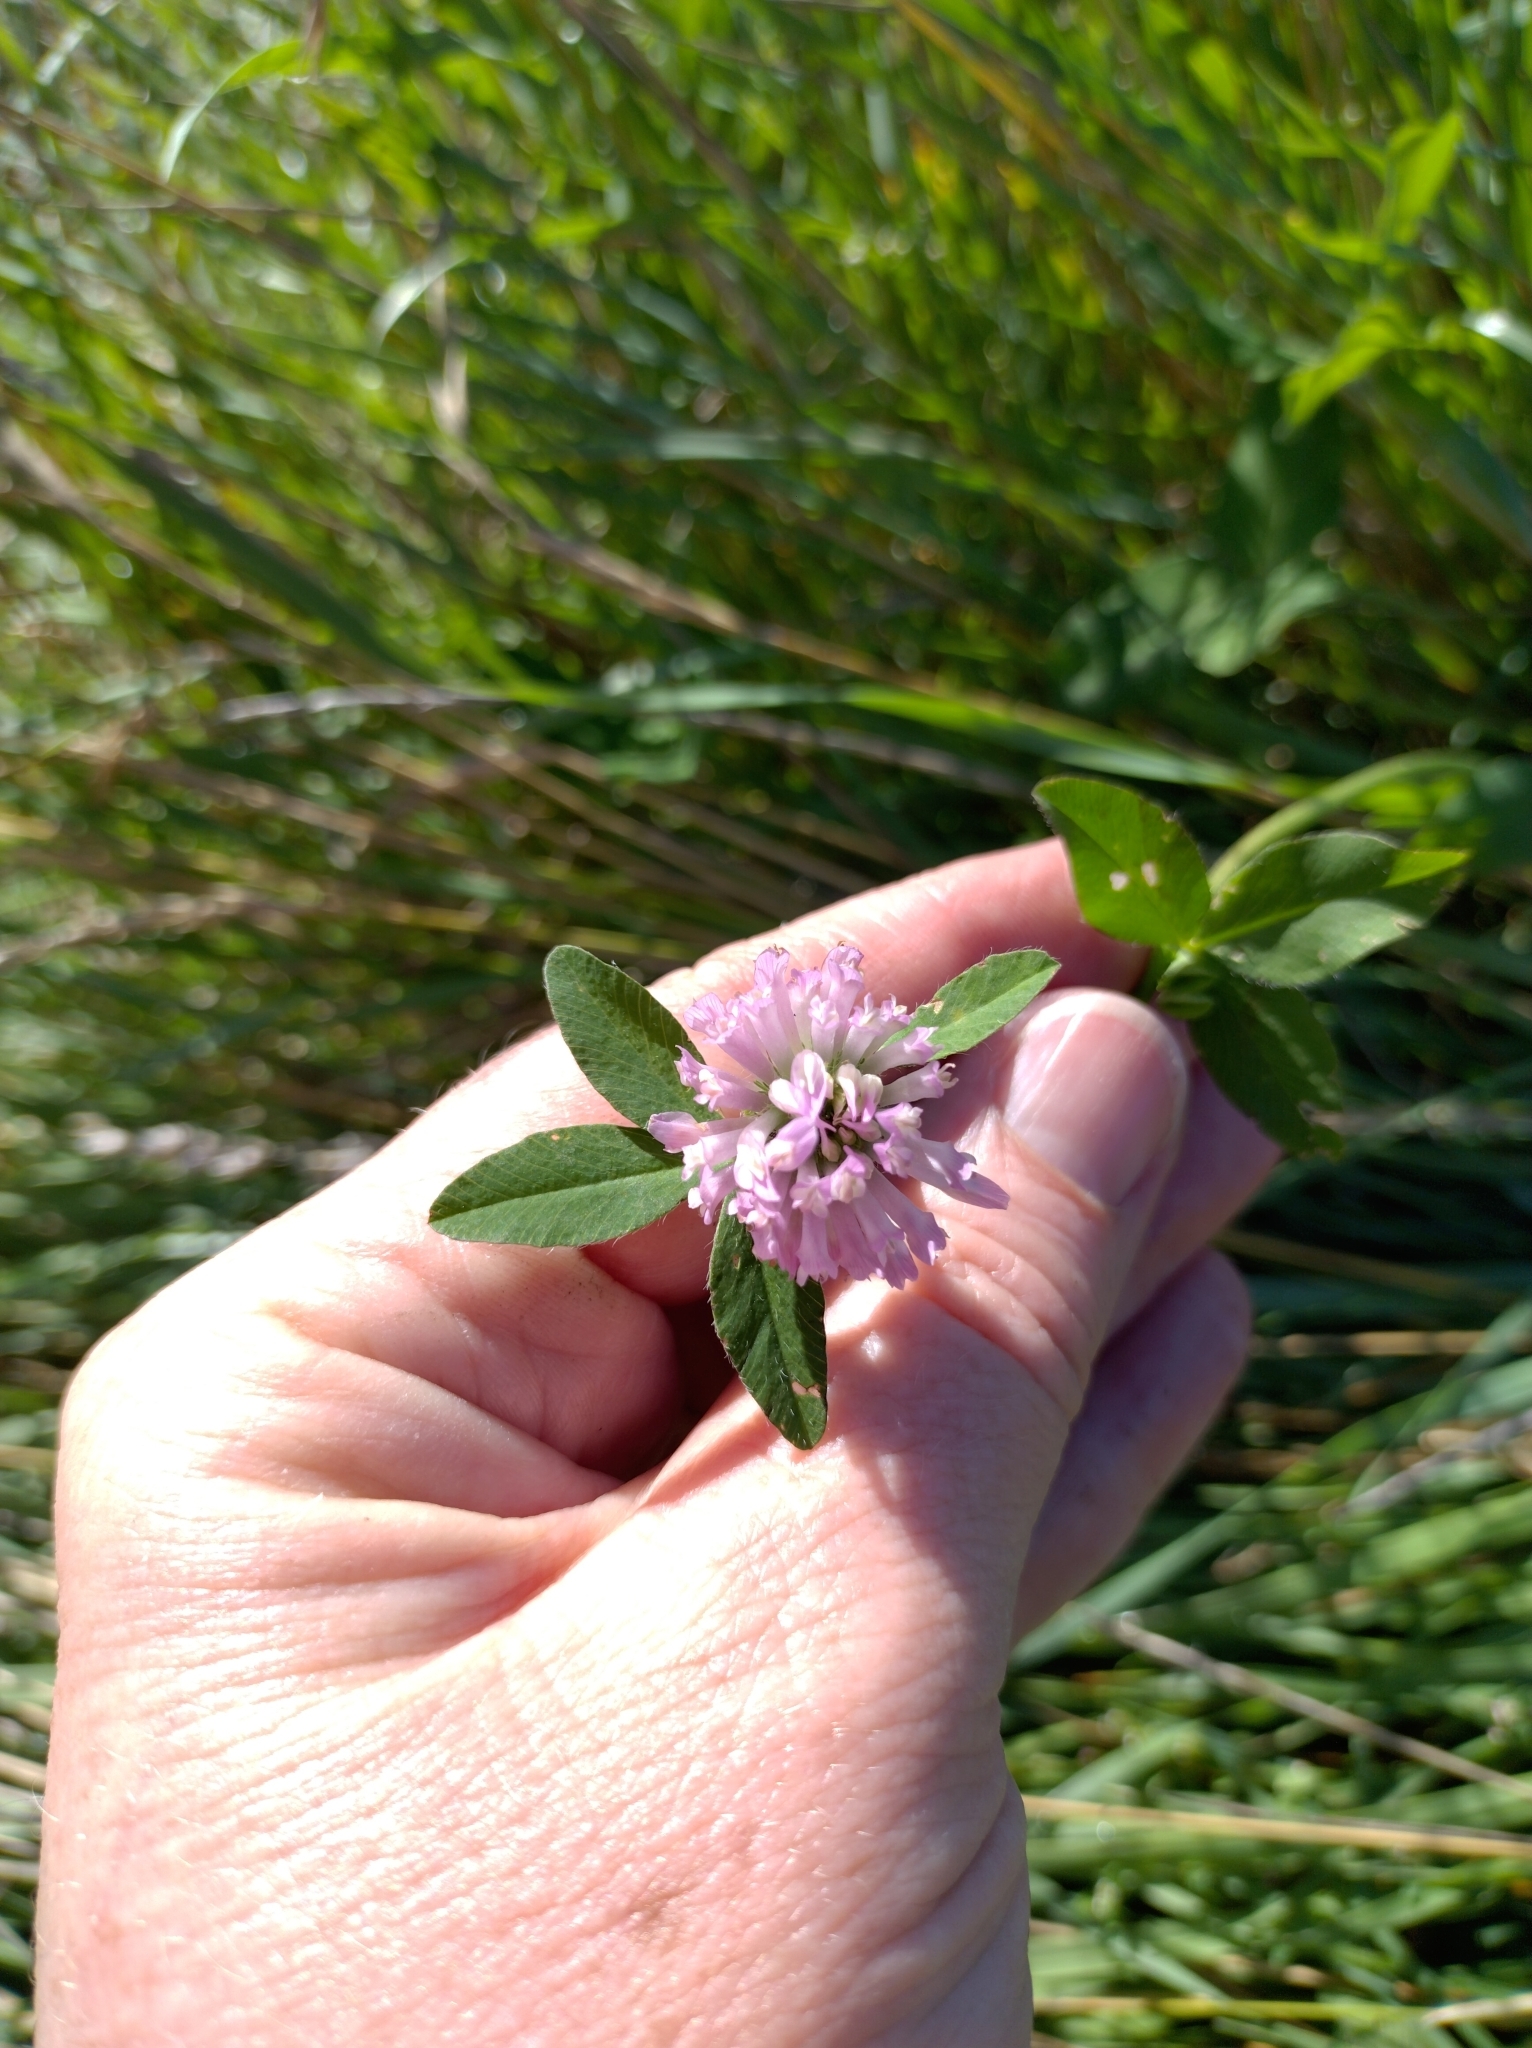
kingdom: Plantae
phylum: Tracheophyta
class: Magnoliopsida
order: Fabales
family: Fabaceae
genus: Trifolium
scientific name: Trifolium pratense
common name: Red clover
